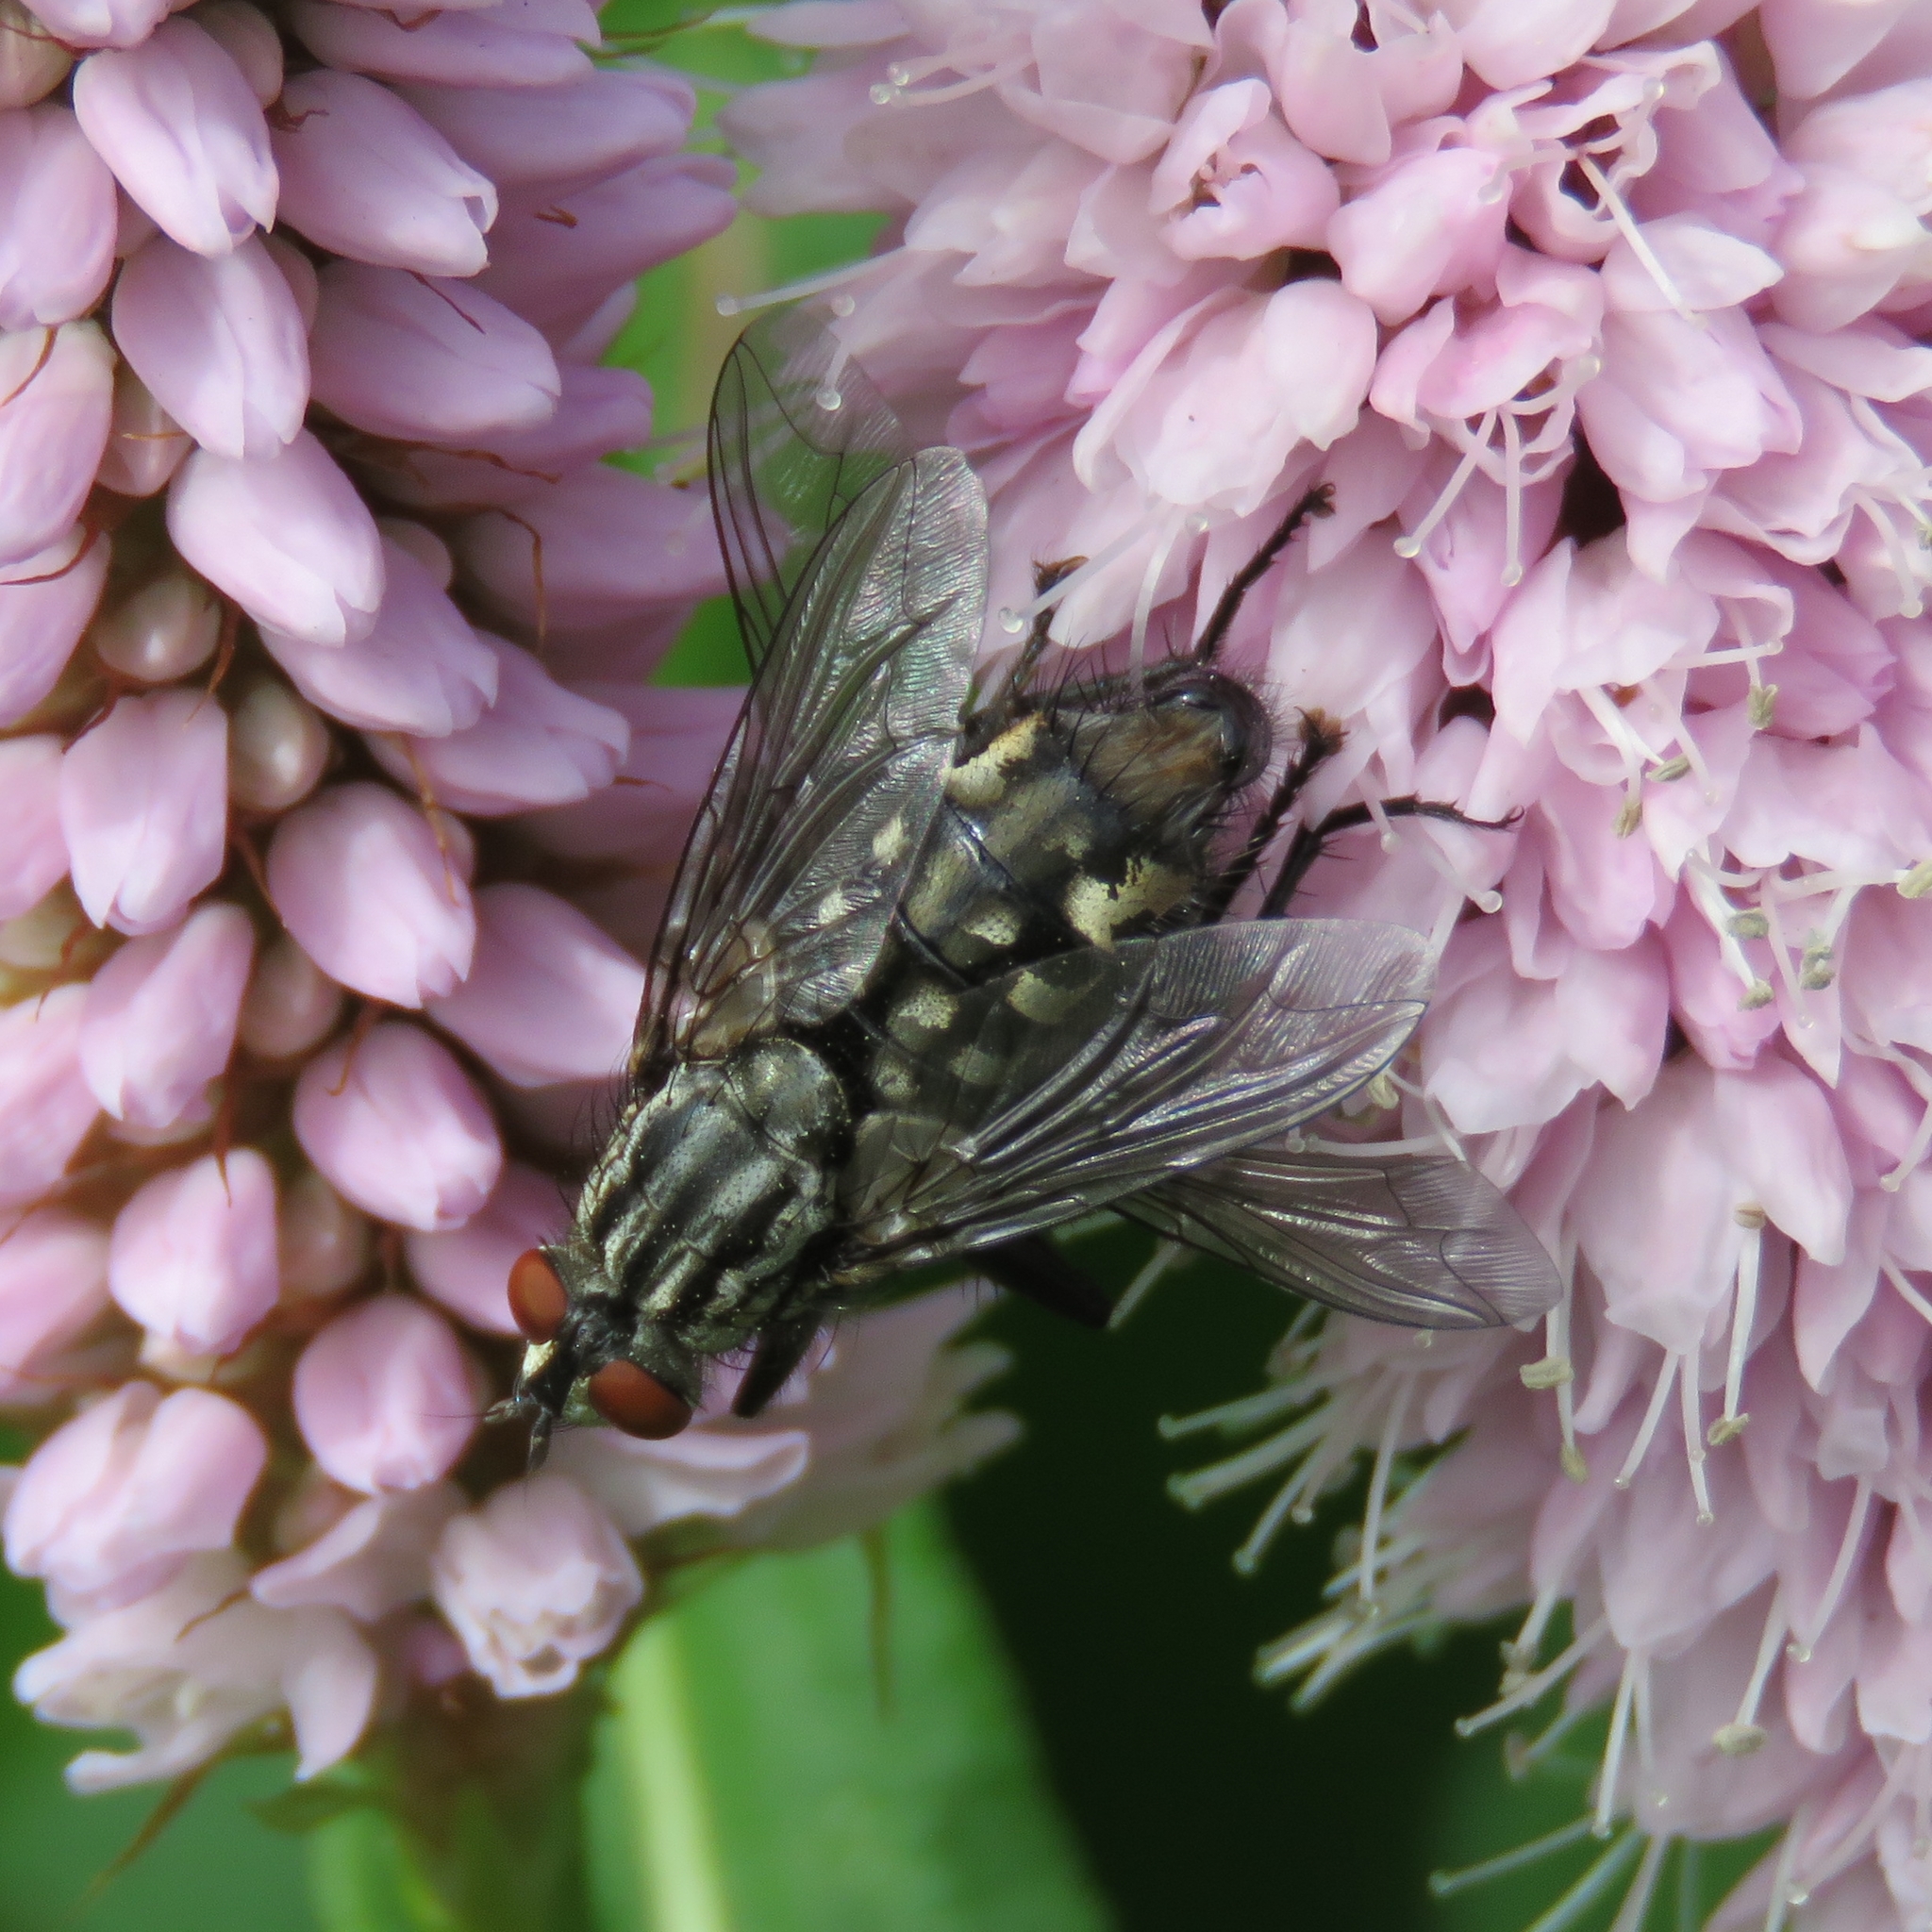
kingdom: Animalia
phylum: Arthropoda
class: Insecta
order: Diptera
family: Sarcophagidae
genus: Sarcophaga
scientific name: Sarcophaga
